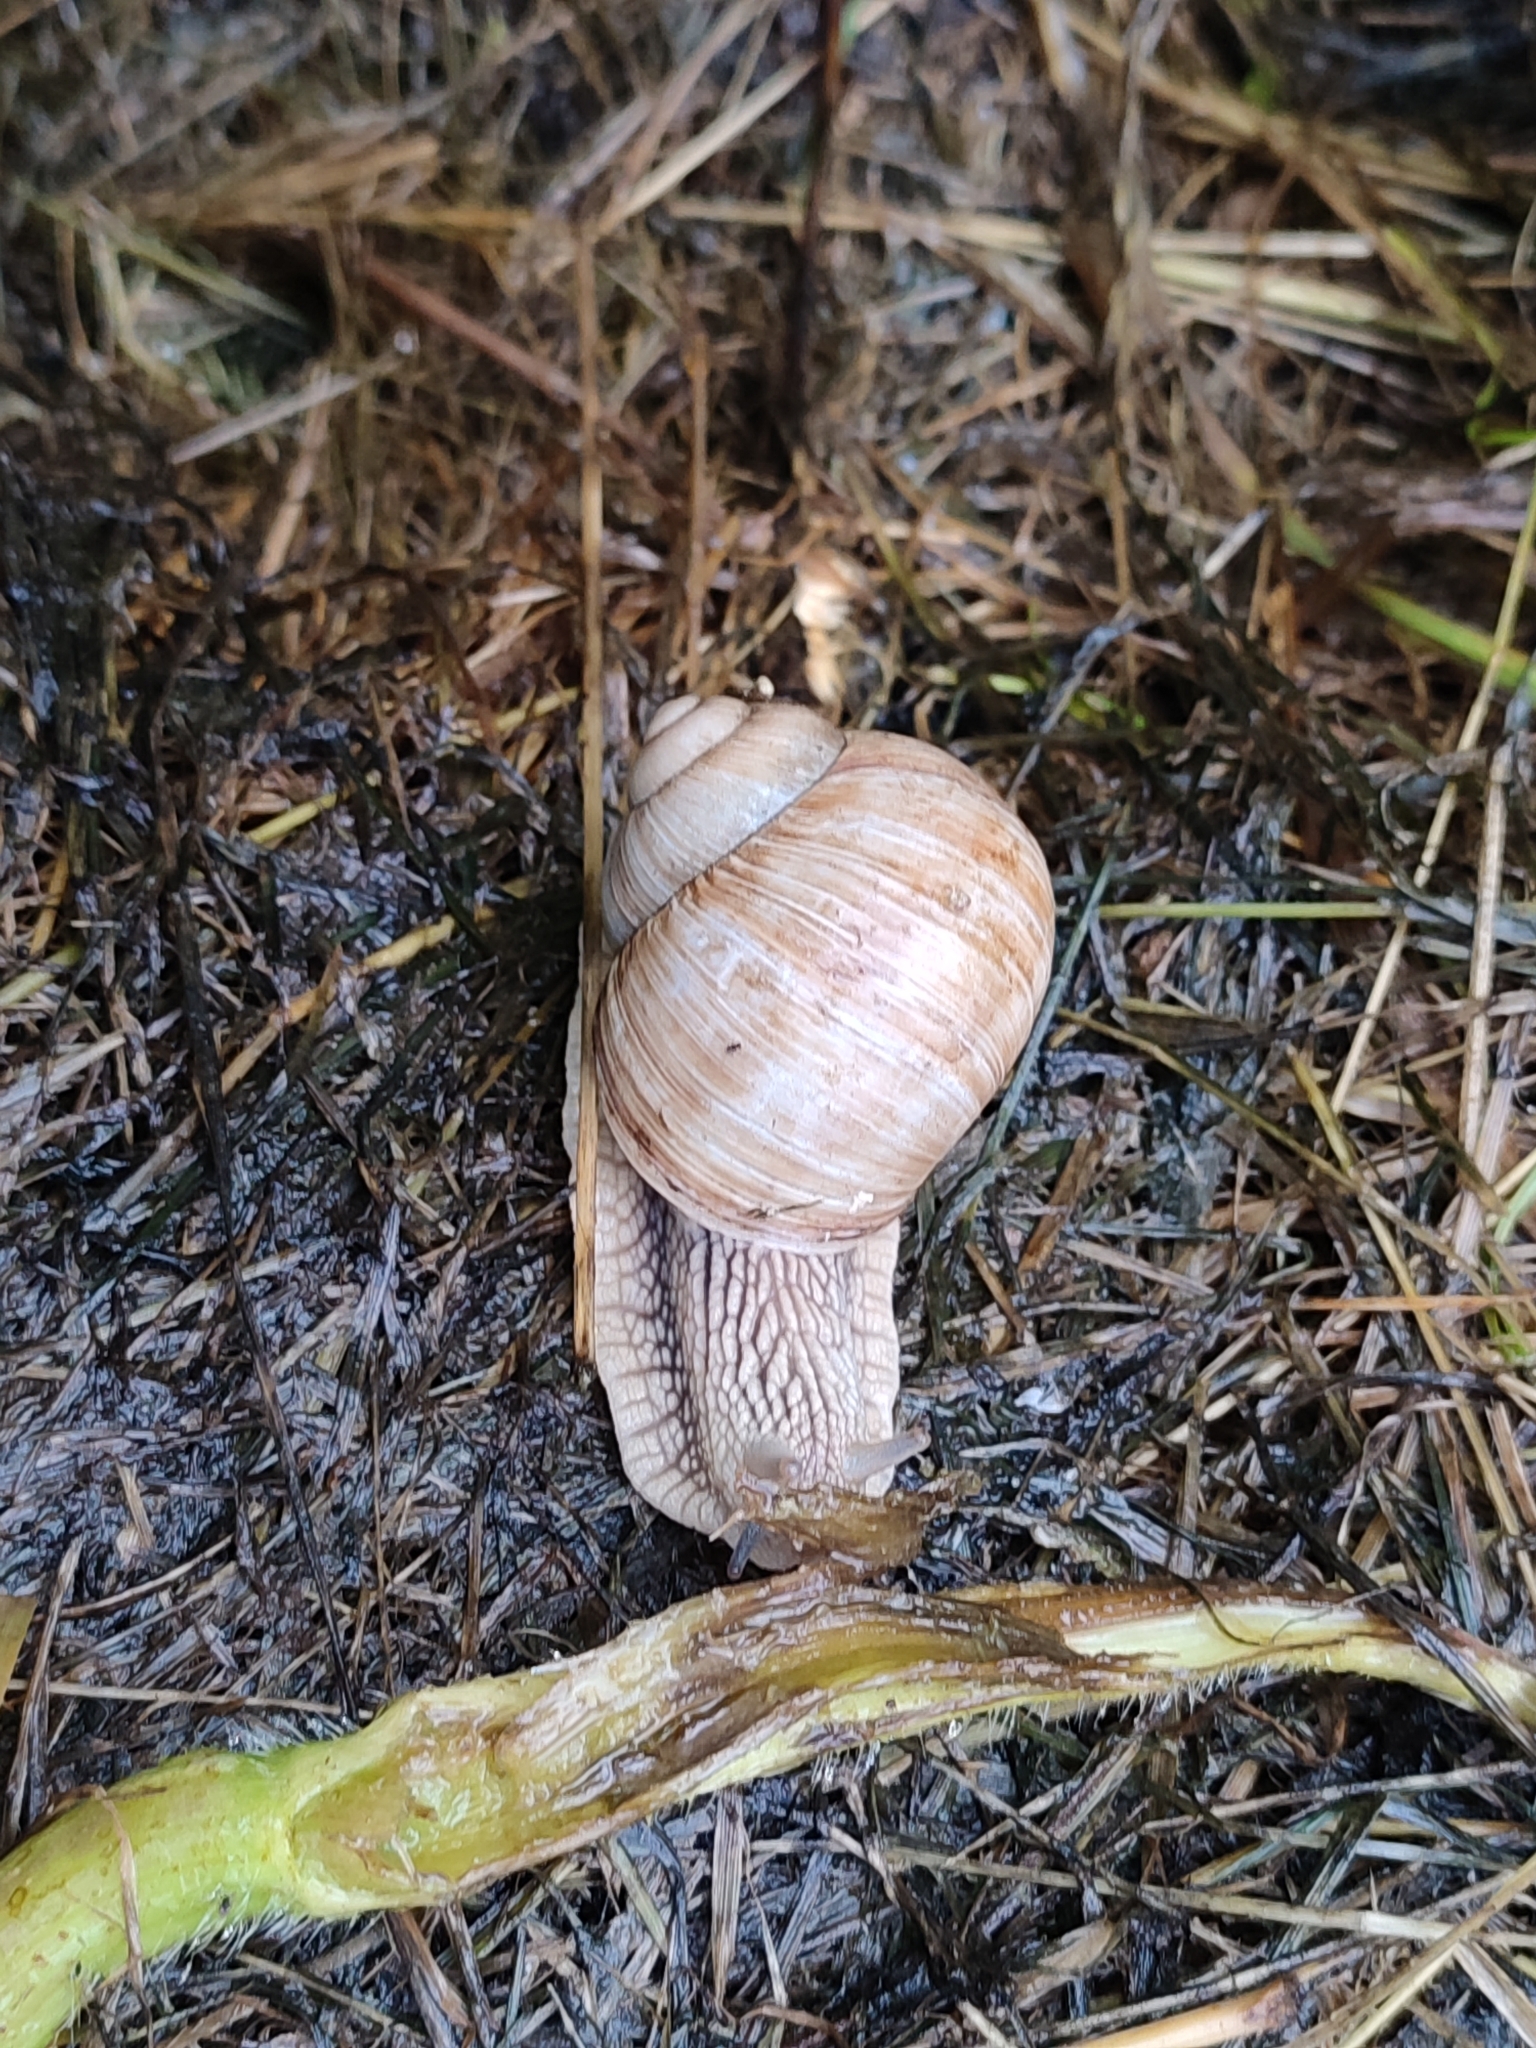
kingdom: Animalia
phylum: Mollusca
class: Gastropoda
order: Stylommatophora
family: Helicidae
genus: Helix
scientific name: Helix pomatia
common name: Roman snail
